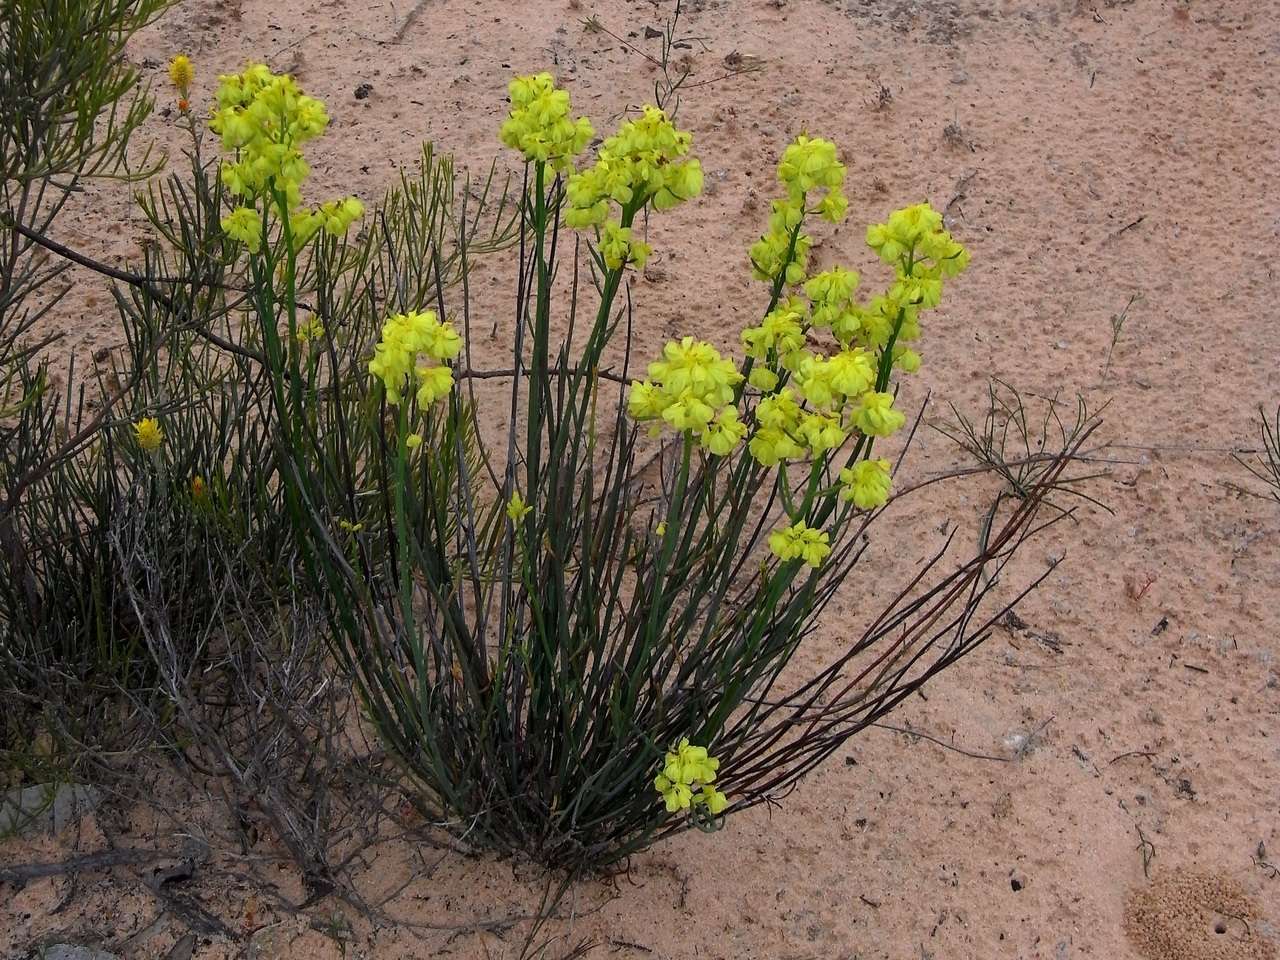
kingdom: Plantae
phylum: Tracheophyta
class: Magnoliopsida
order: Saxifragales
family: Haloragaceae
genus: Glischrocaryon
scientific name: Glischrocaryon behrii
